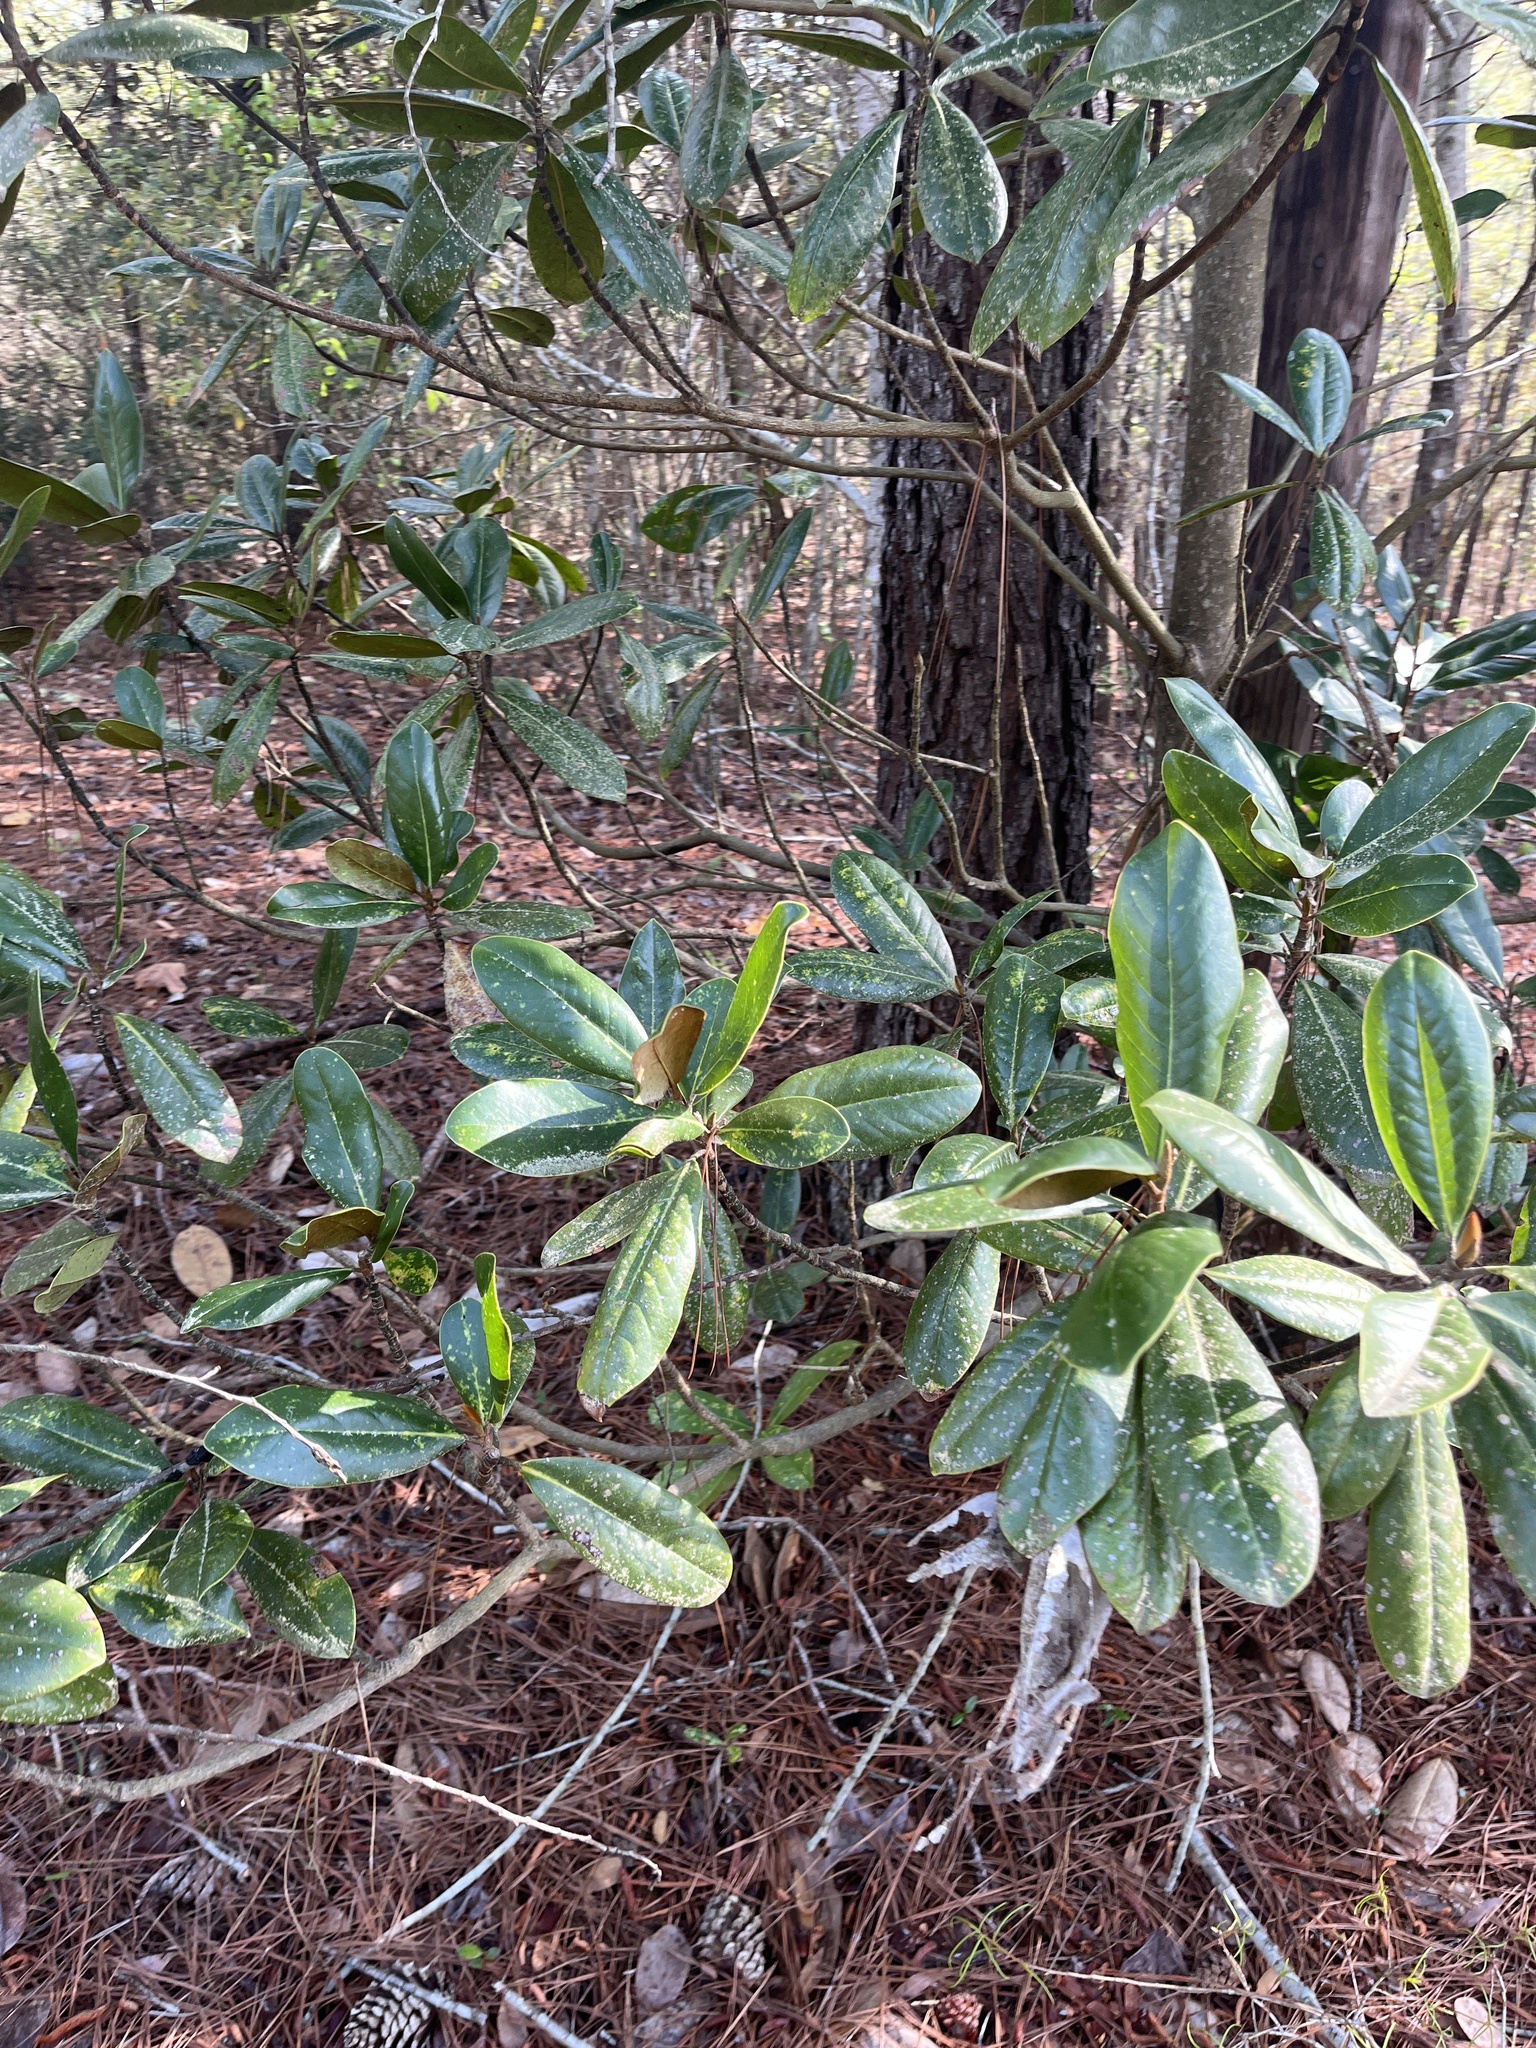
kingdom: Plantae
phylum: Tracheophyta
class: Magnoliopsida
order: Magnoliales
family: Magnoliaceae
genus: Magnolia
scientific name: Magnolia grandiflora
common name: Southern magnolia
